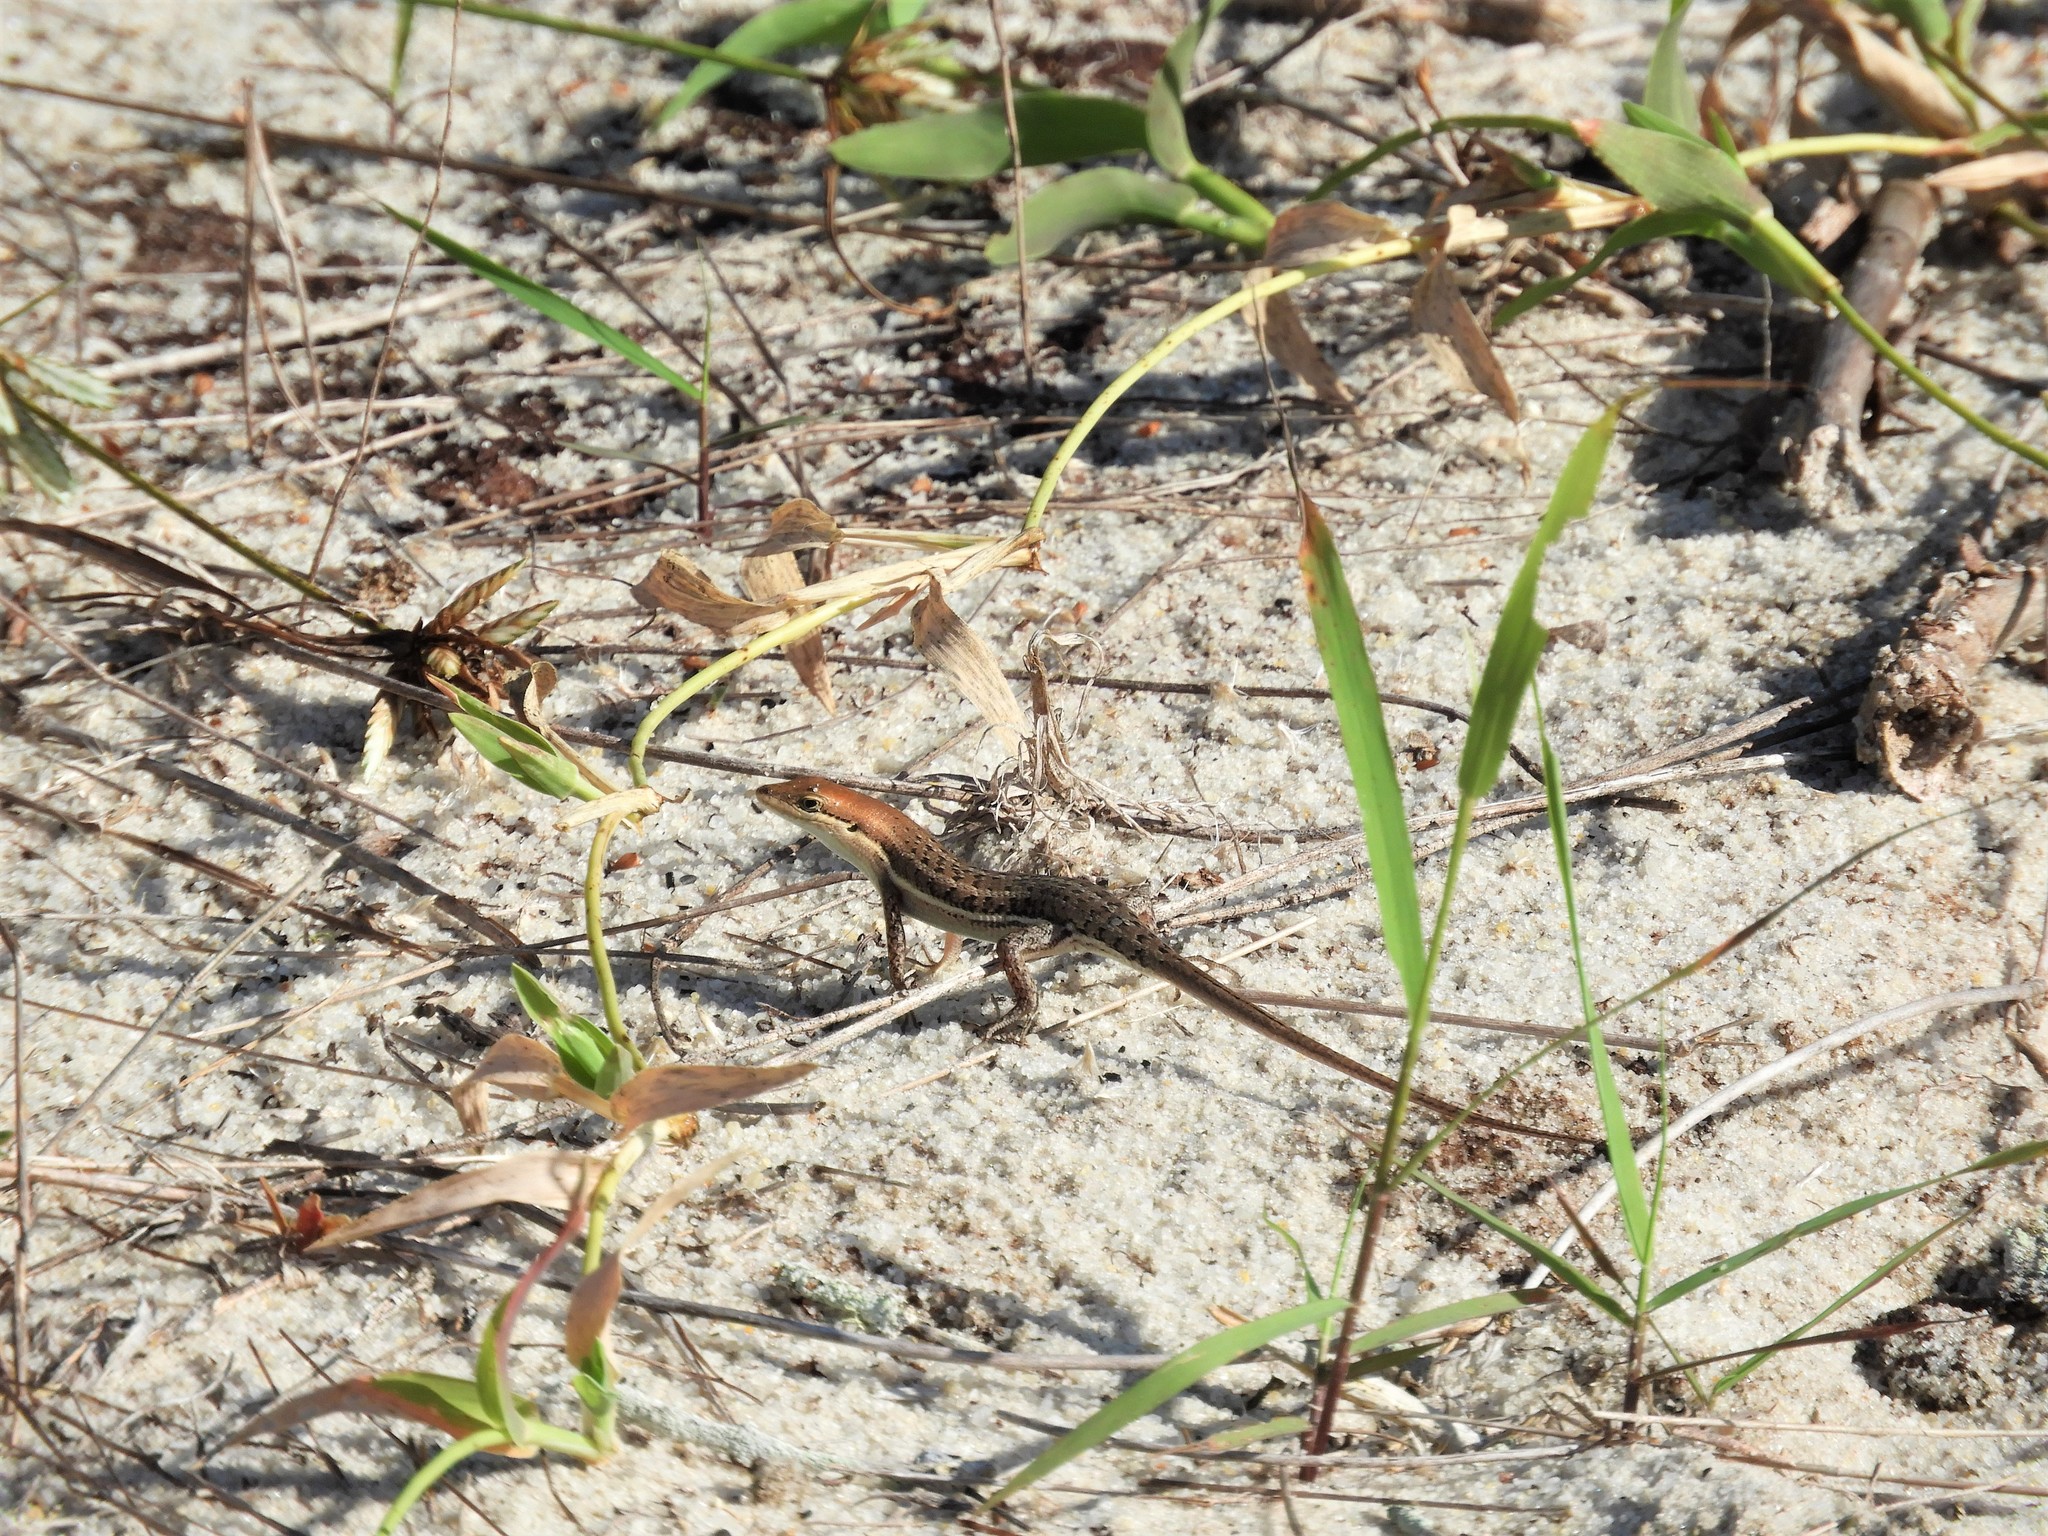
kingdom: Animalia
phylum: Chordata
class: Squamata
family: Scincidae
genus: Trachylepis
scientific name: Trachylepis varia
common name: Eastern variable skink
